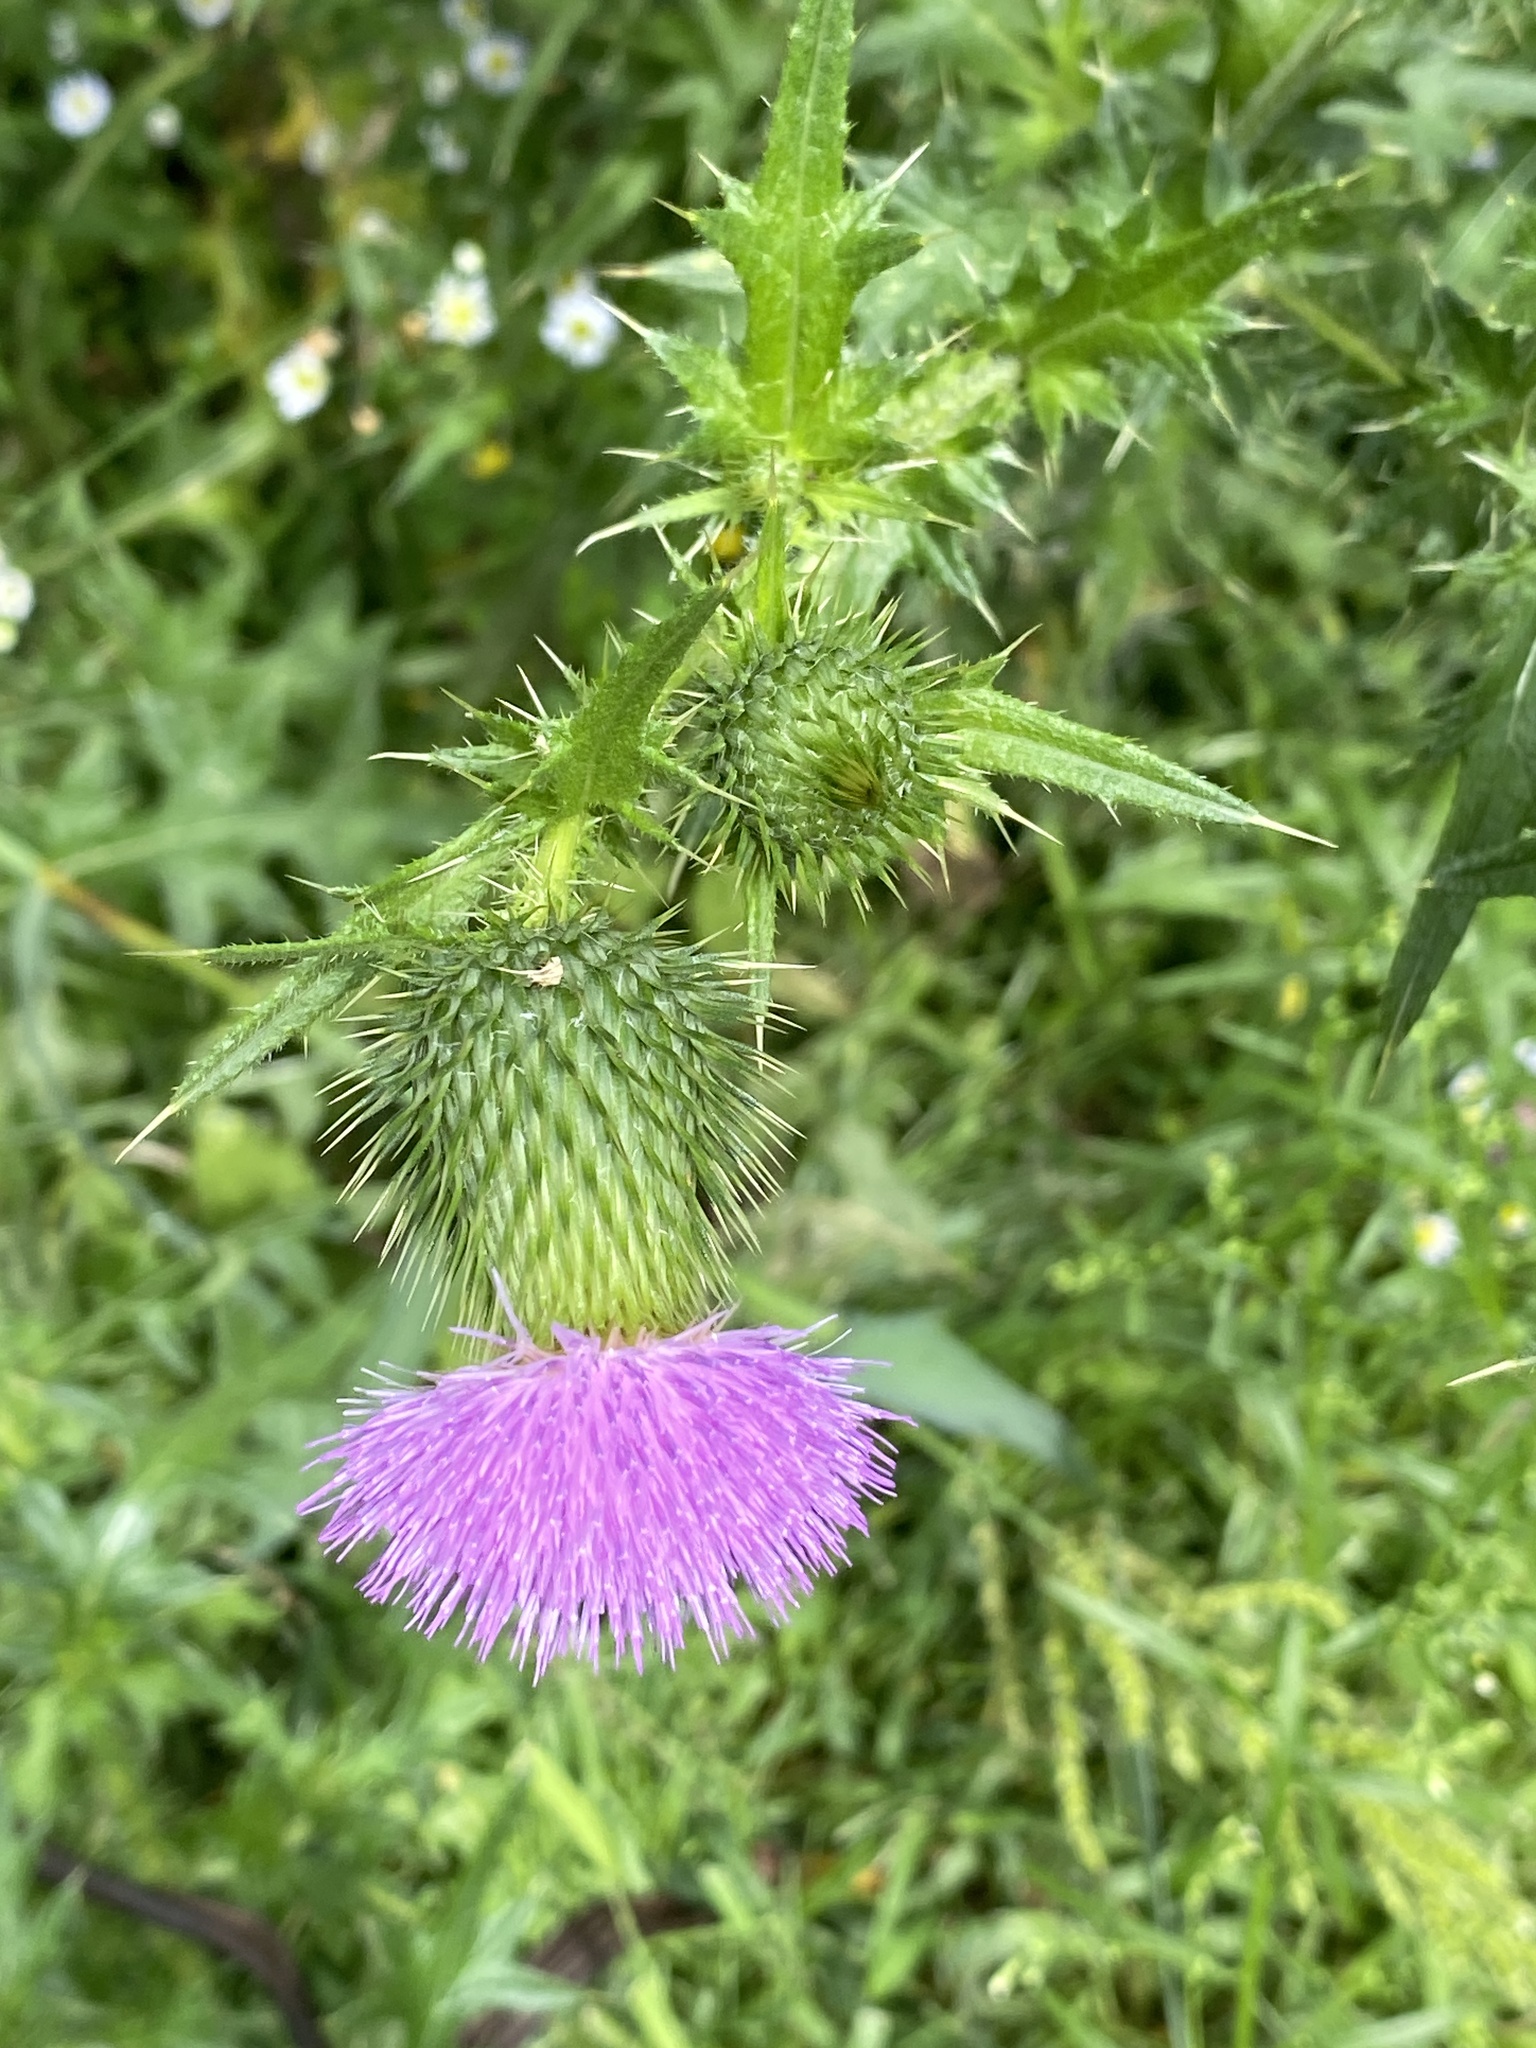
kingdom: Plantae
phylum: Tracheophyta
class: Magnoliopsida
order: Asterales
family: Asteraceae
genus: Cirsium
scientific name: Cirsium vulgare
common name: Bull thistle
